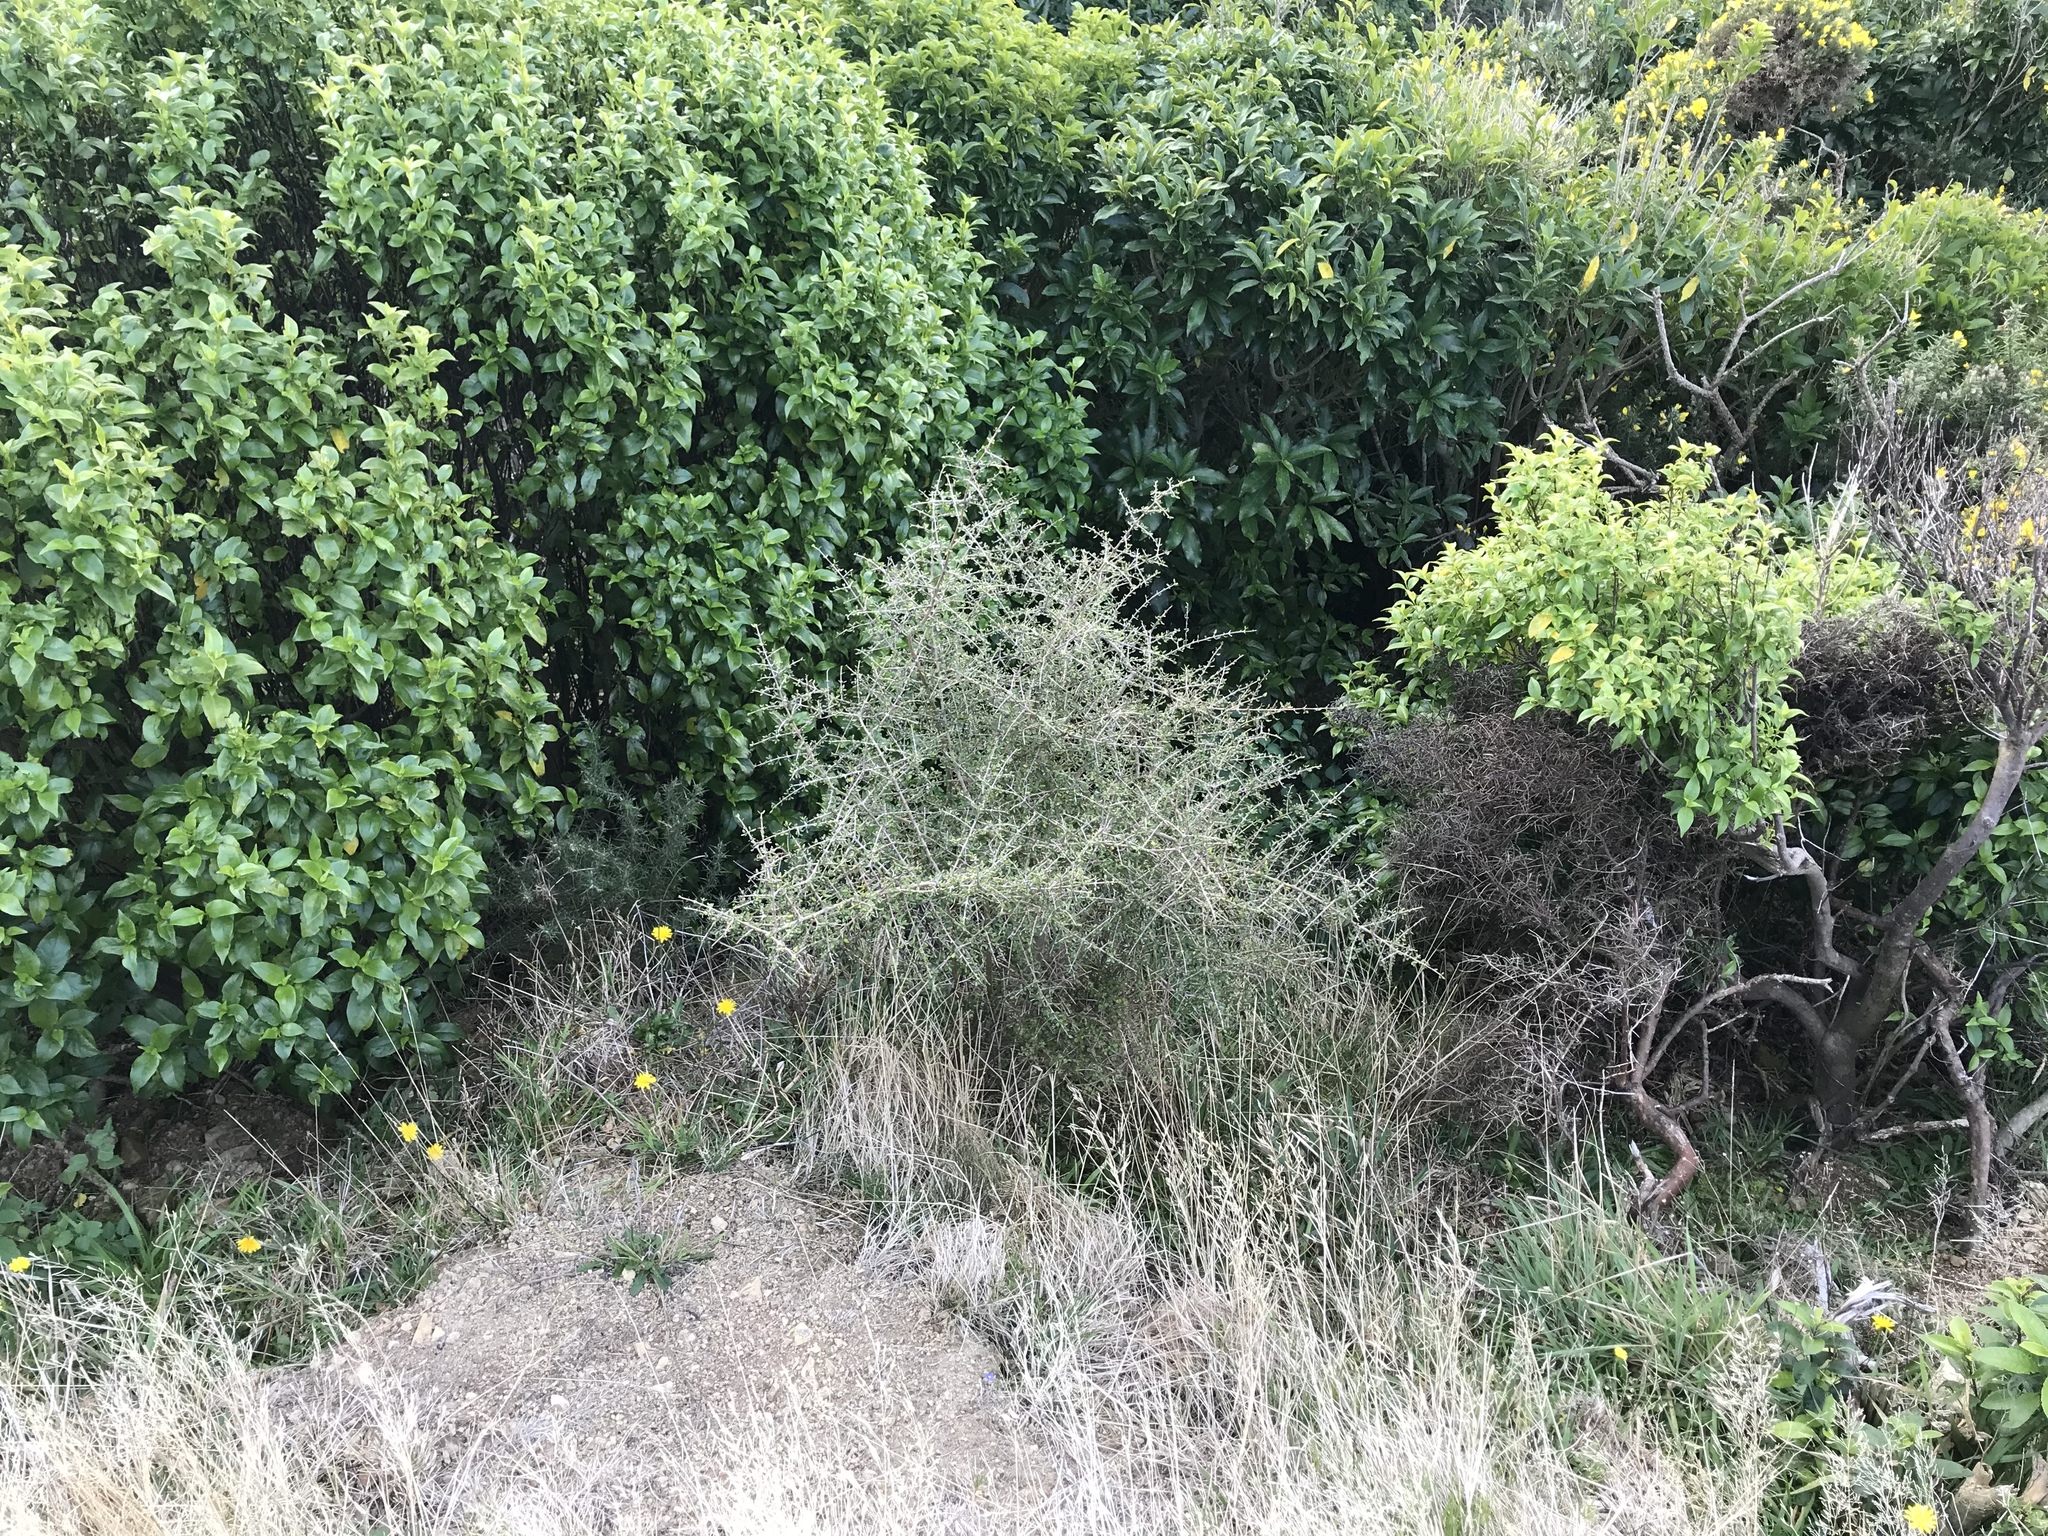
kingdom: Plantae
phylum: Tracheophyta
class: Magnoliopsida
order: Gentianales
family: Rubiaceae
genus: Coprosma
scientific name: Coprosma propinqua
